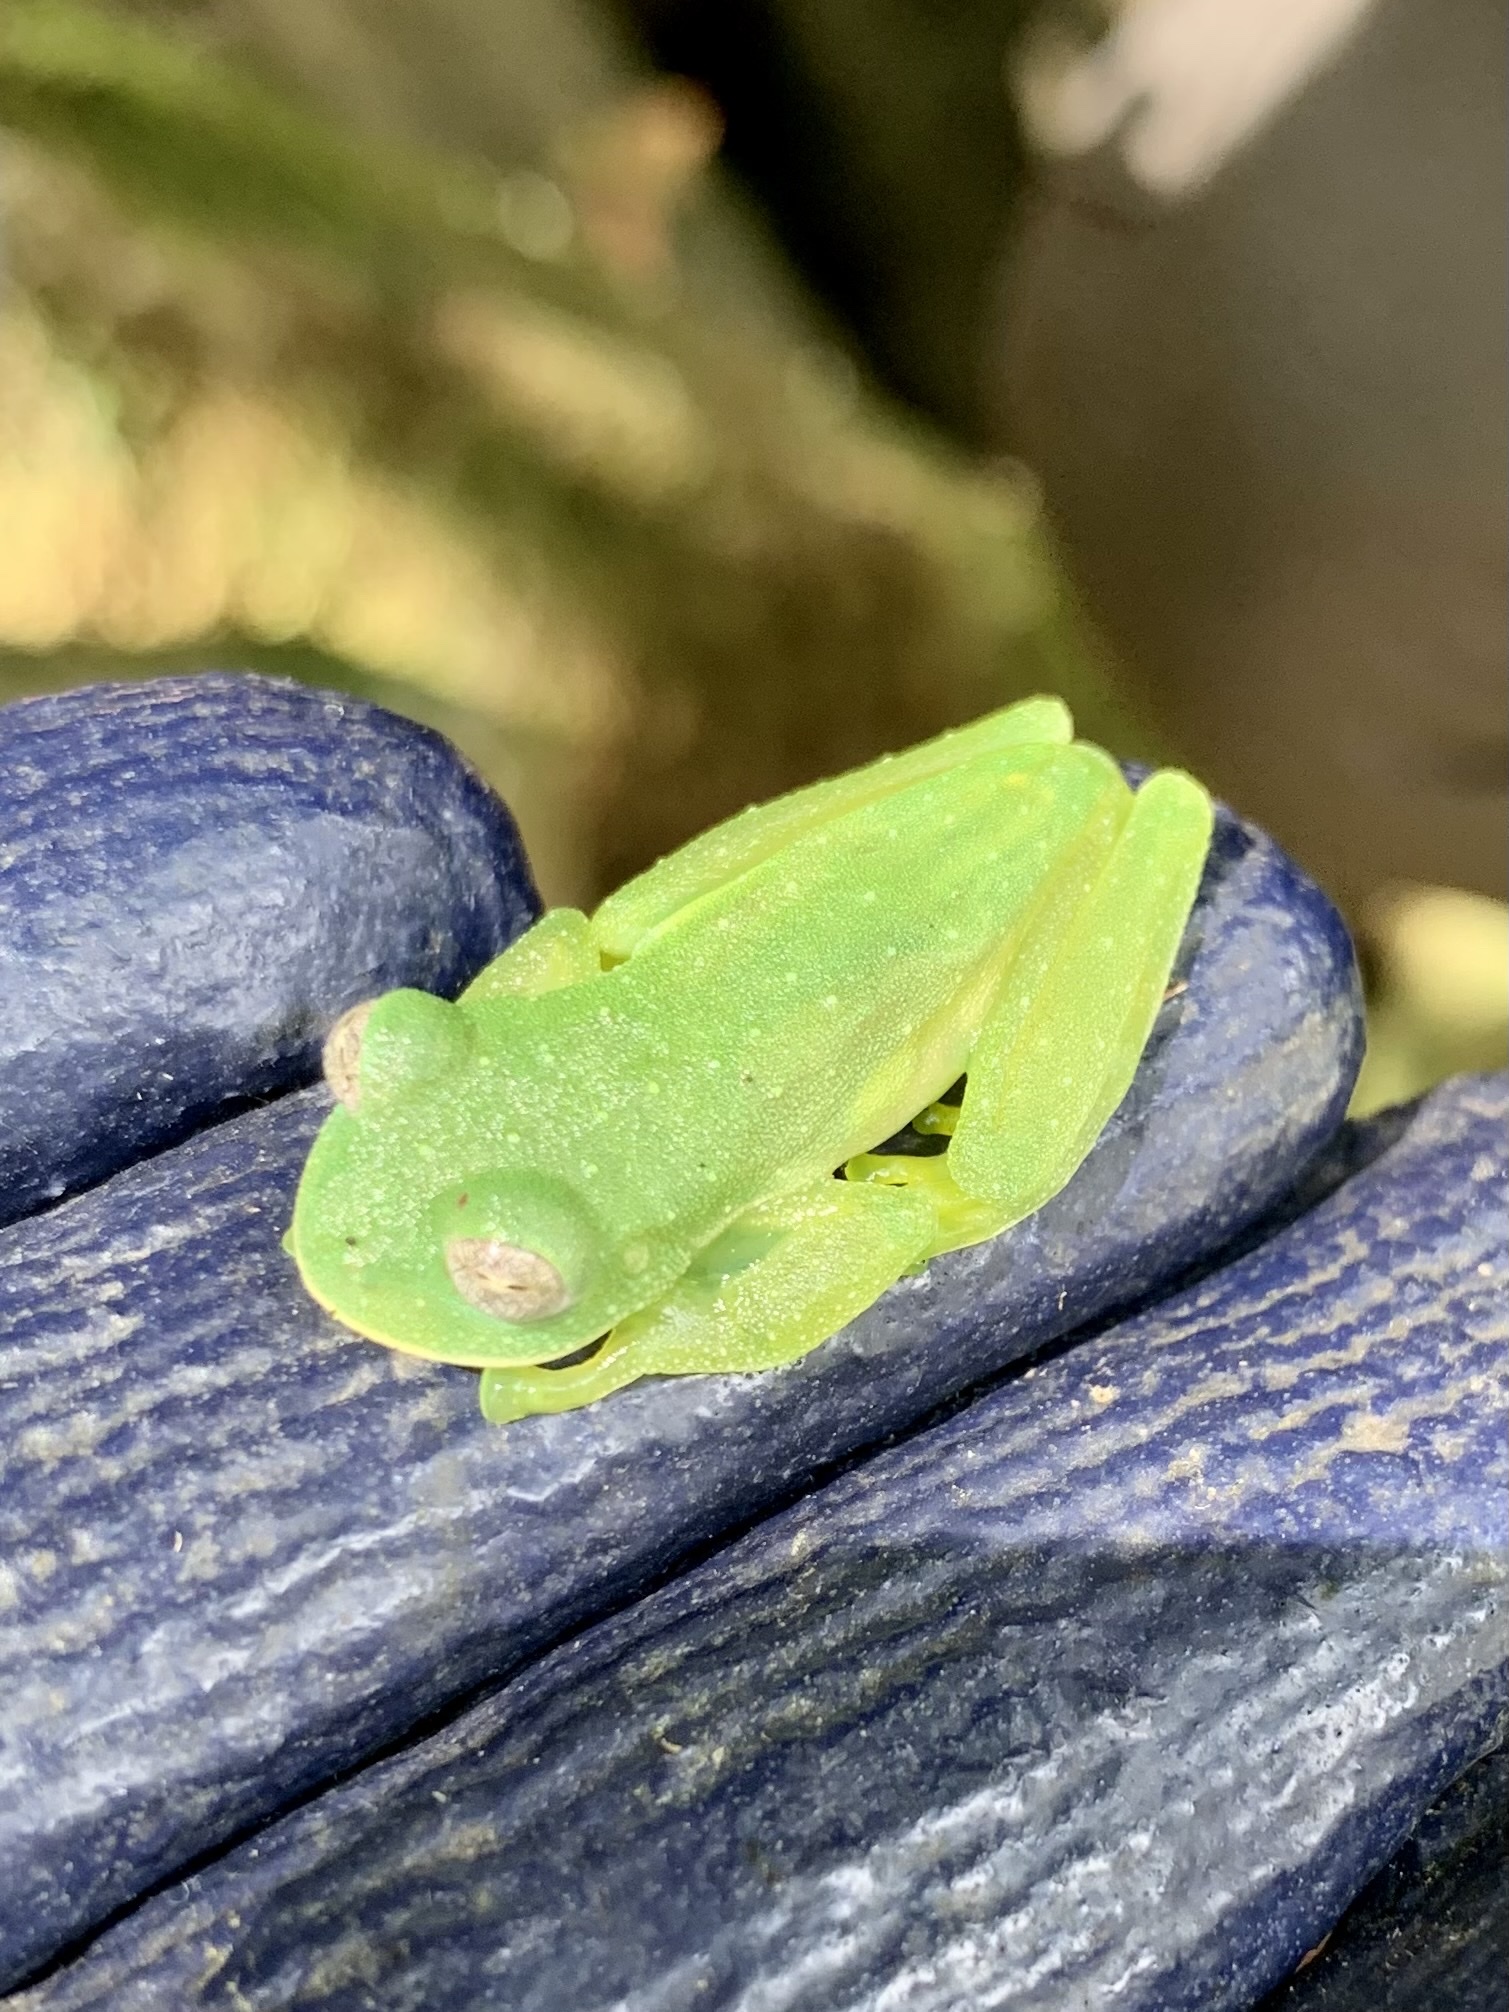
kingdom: Animalia
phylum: Chordata
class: Amphibia
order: Anura
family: Centrolenidae
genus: Nymphargus
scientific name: Nymphargus pluvialis
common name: Pistipata cochran frog
